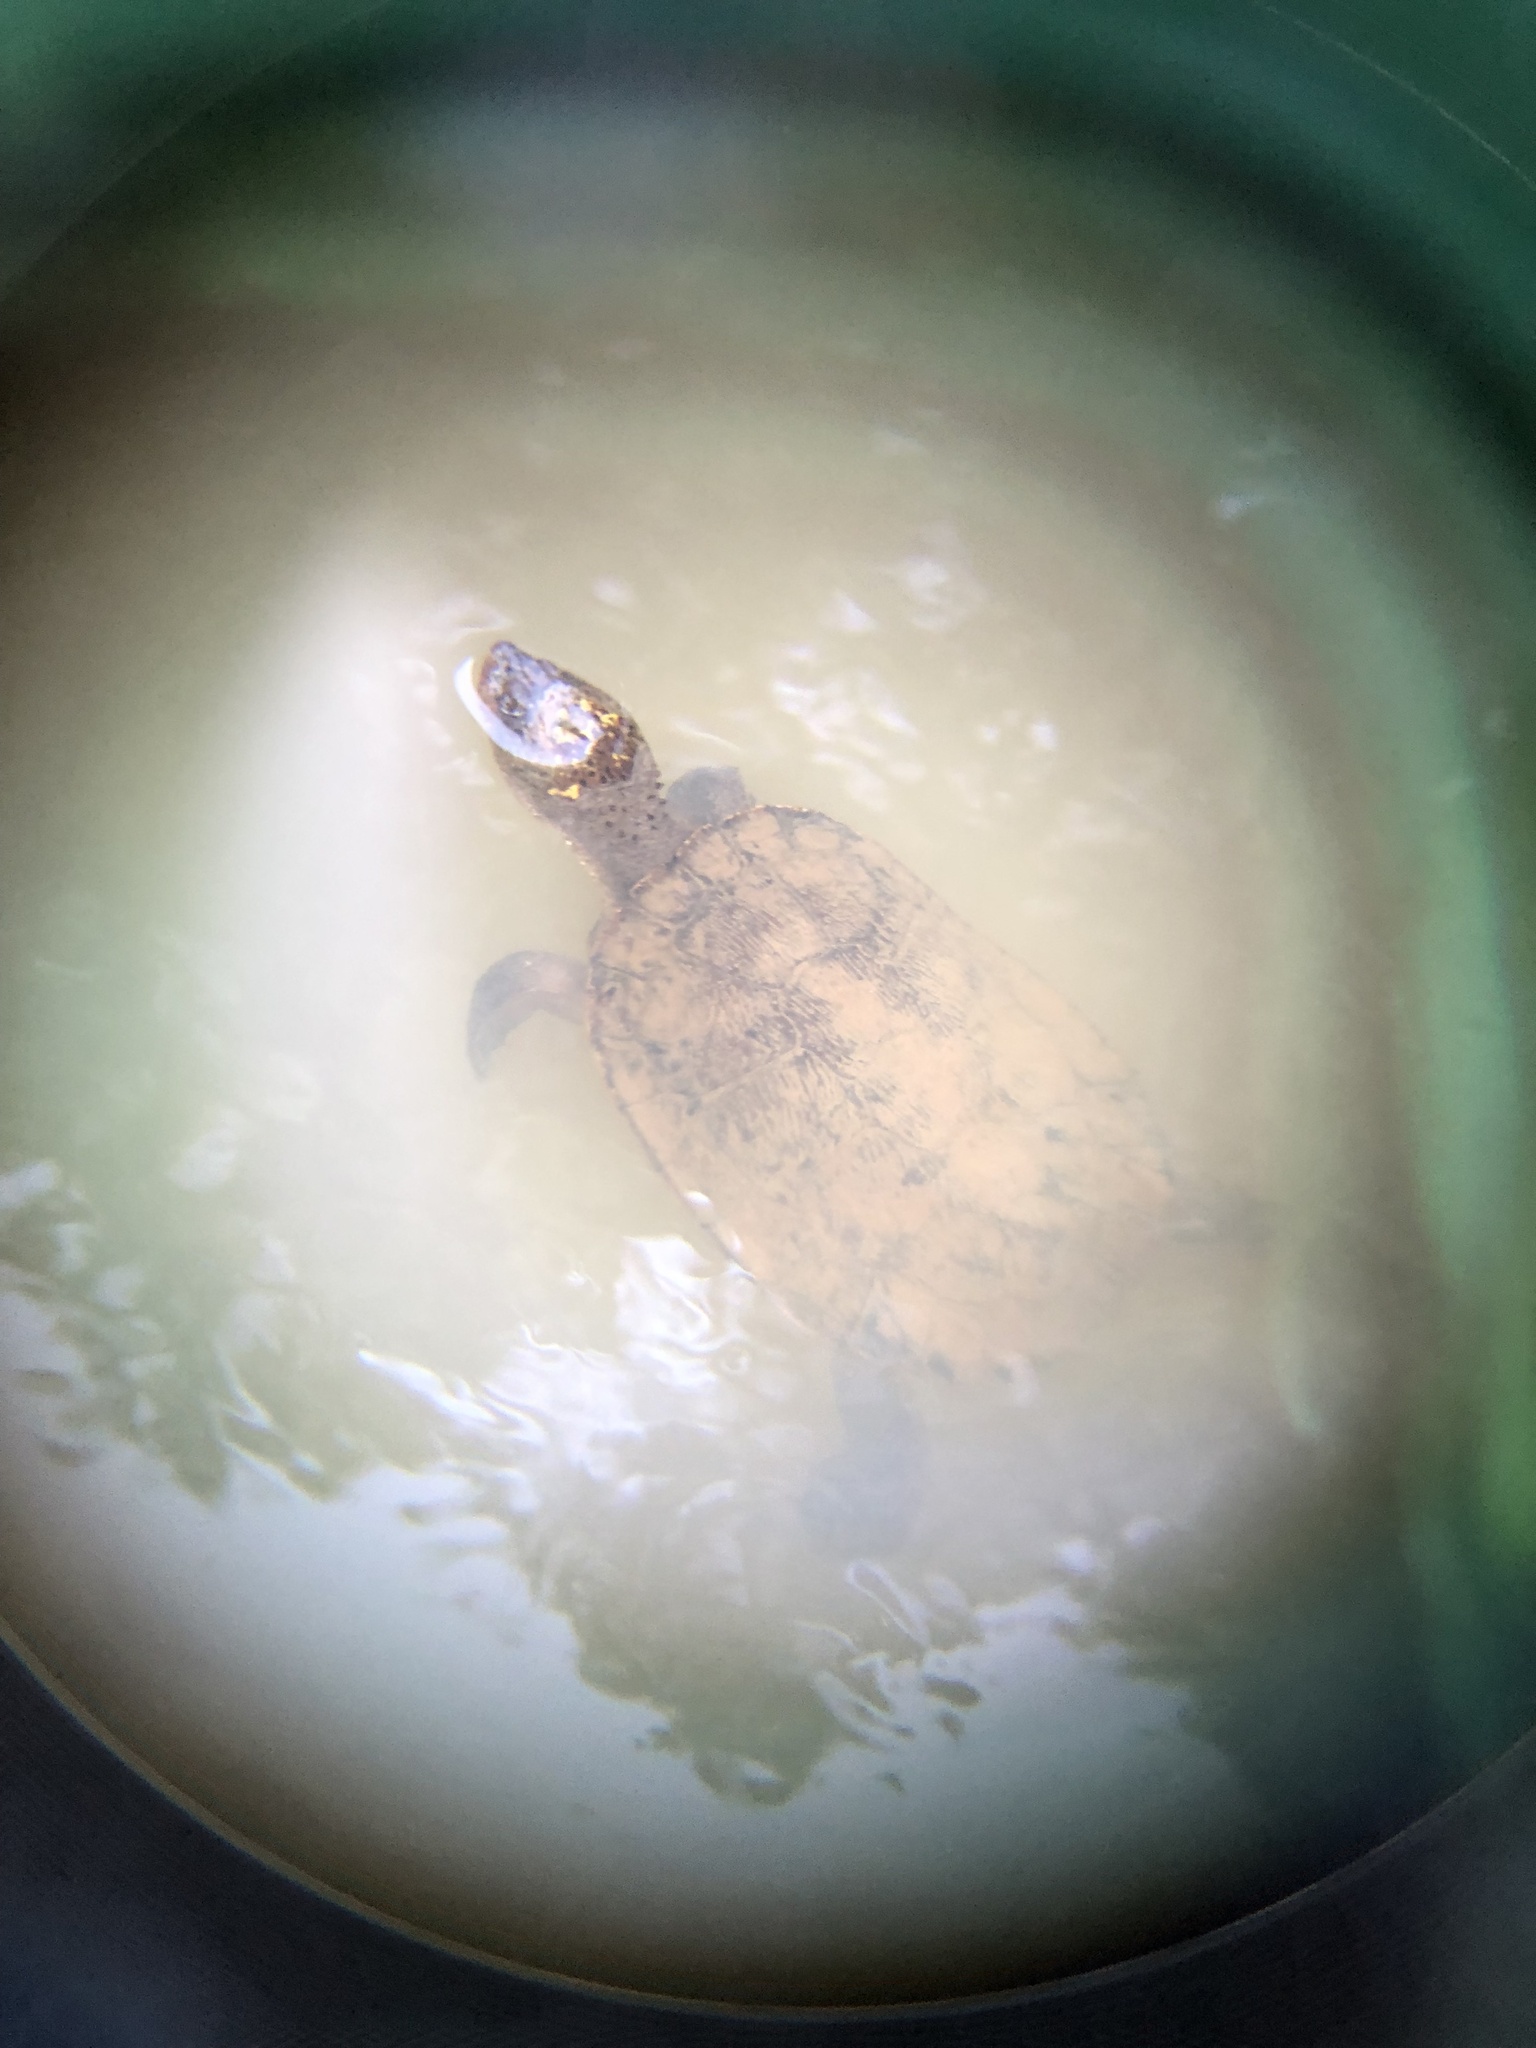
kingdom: Animalia
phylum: Chordata
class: Testudines
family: Chelidae
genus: Myuchelys
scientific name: Myuchelys latisternum
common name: Serrated snapping turtle
